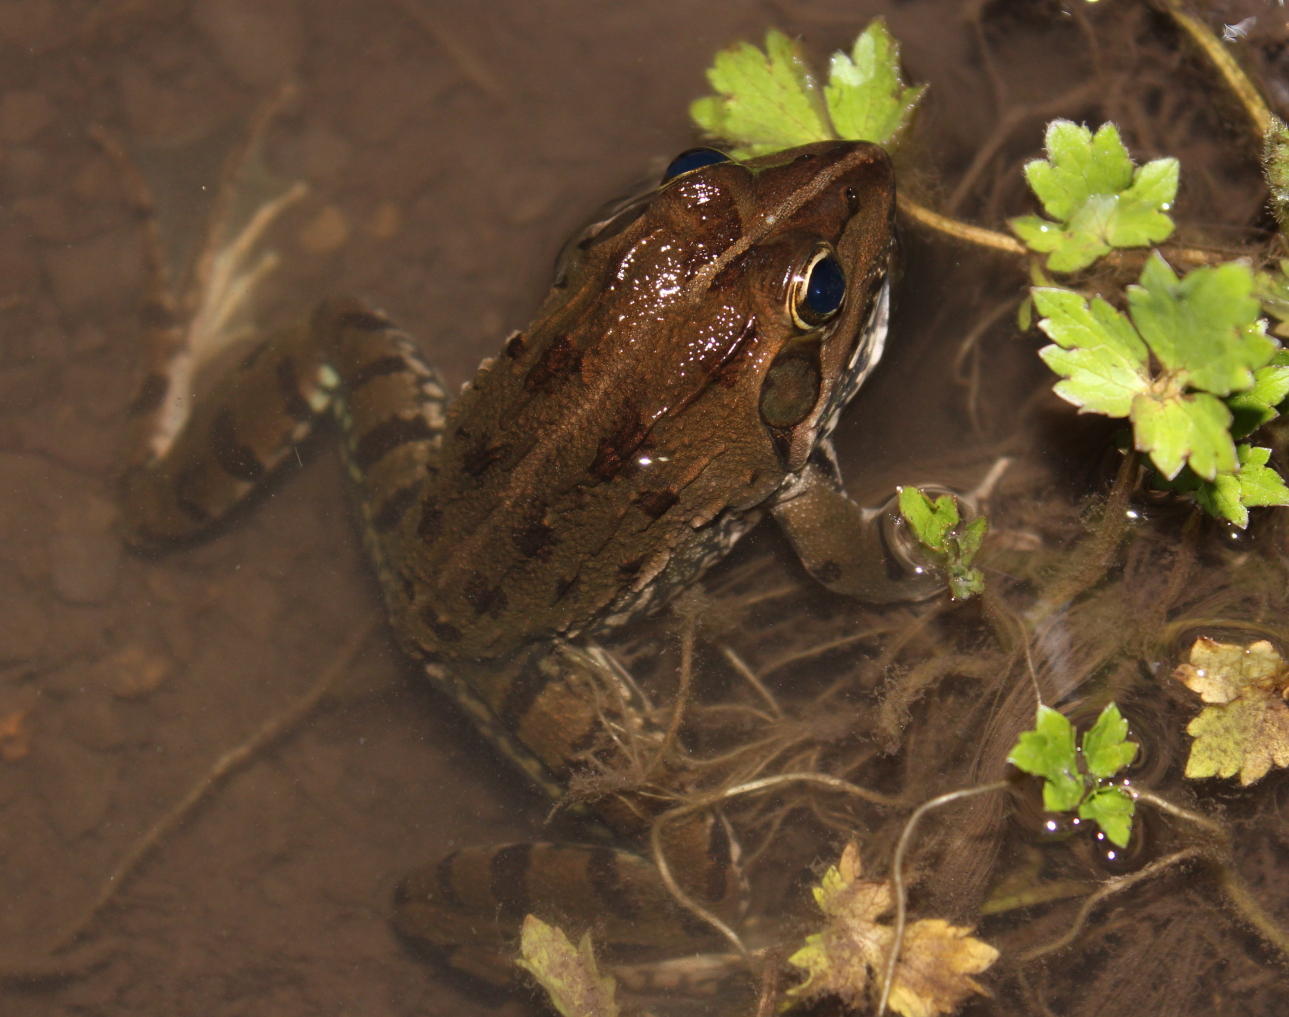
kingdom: Animalia
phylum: Chordata
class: Amphibia
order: Anura
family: Pyxicephalidae
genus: Amietia
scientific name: Amietia poyntoni
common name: Poynton's river frog
